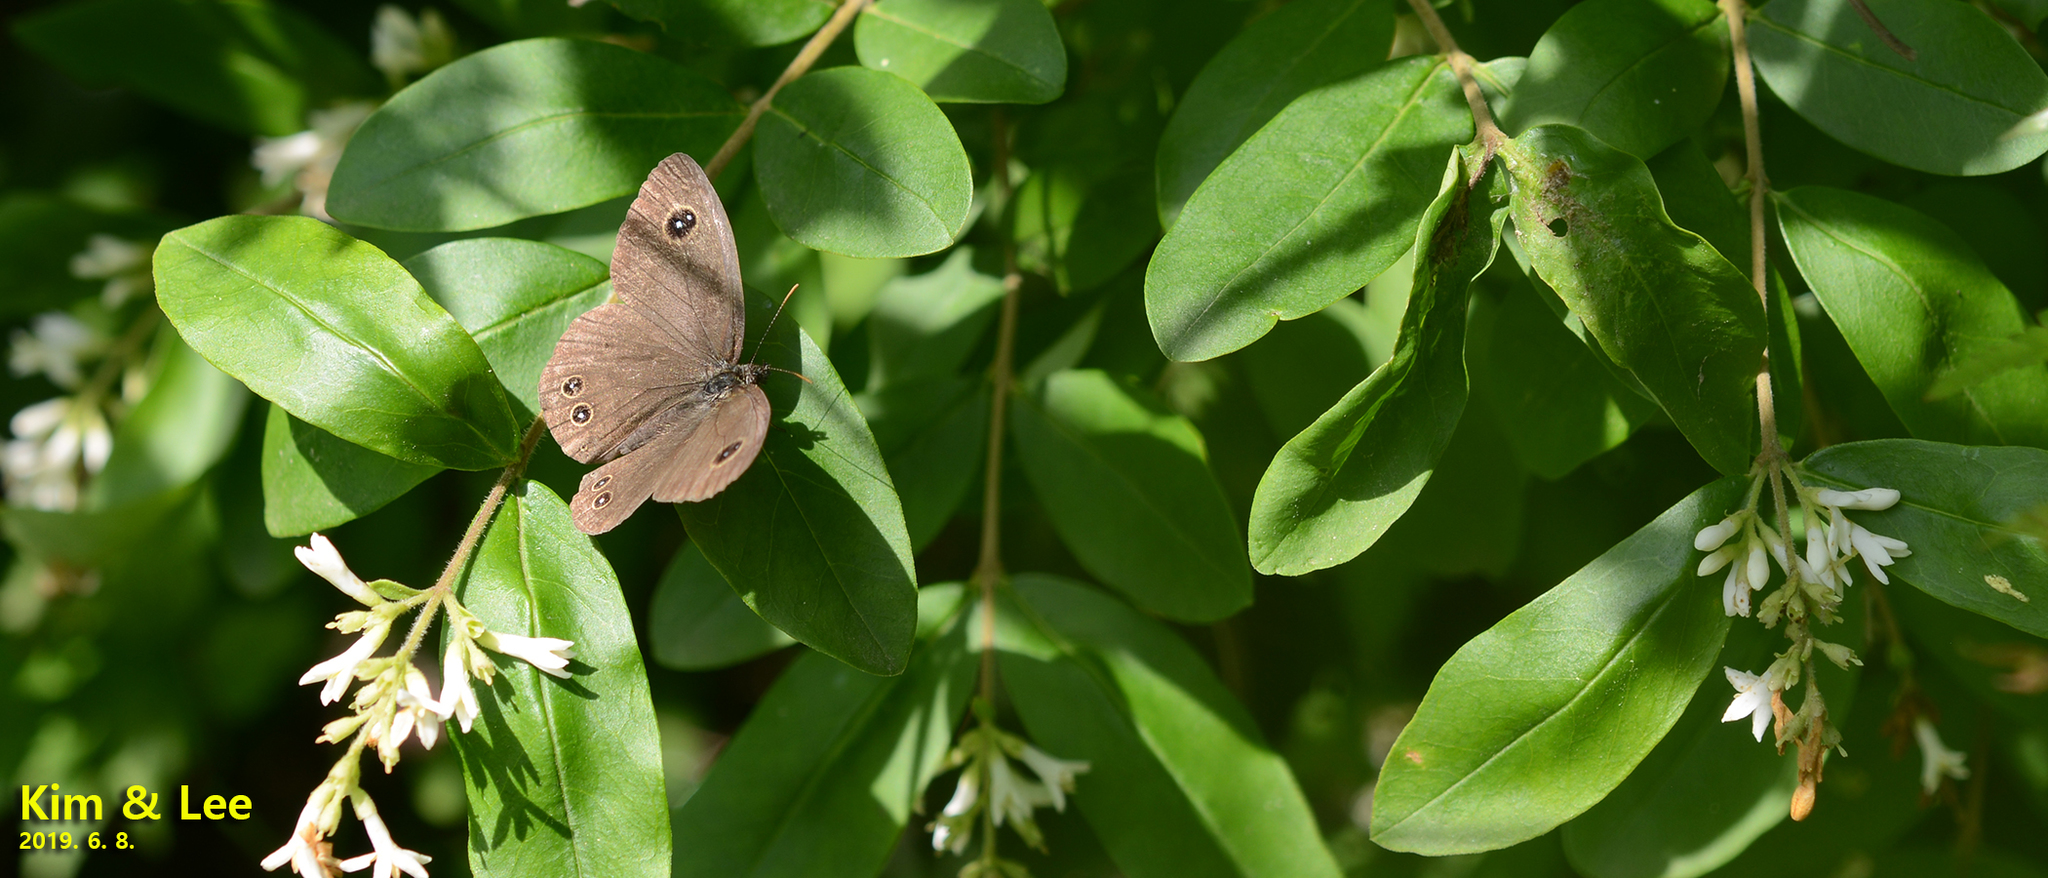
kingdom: Animalia
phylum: Arthropoda
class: Insecta
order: Lepidoptera
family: Nymphalidae
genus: Ypthima
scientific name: Ypthima argus
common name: Common fivering
